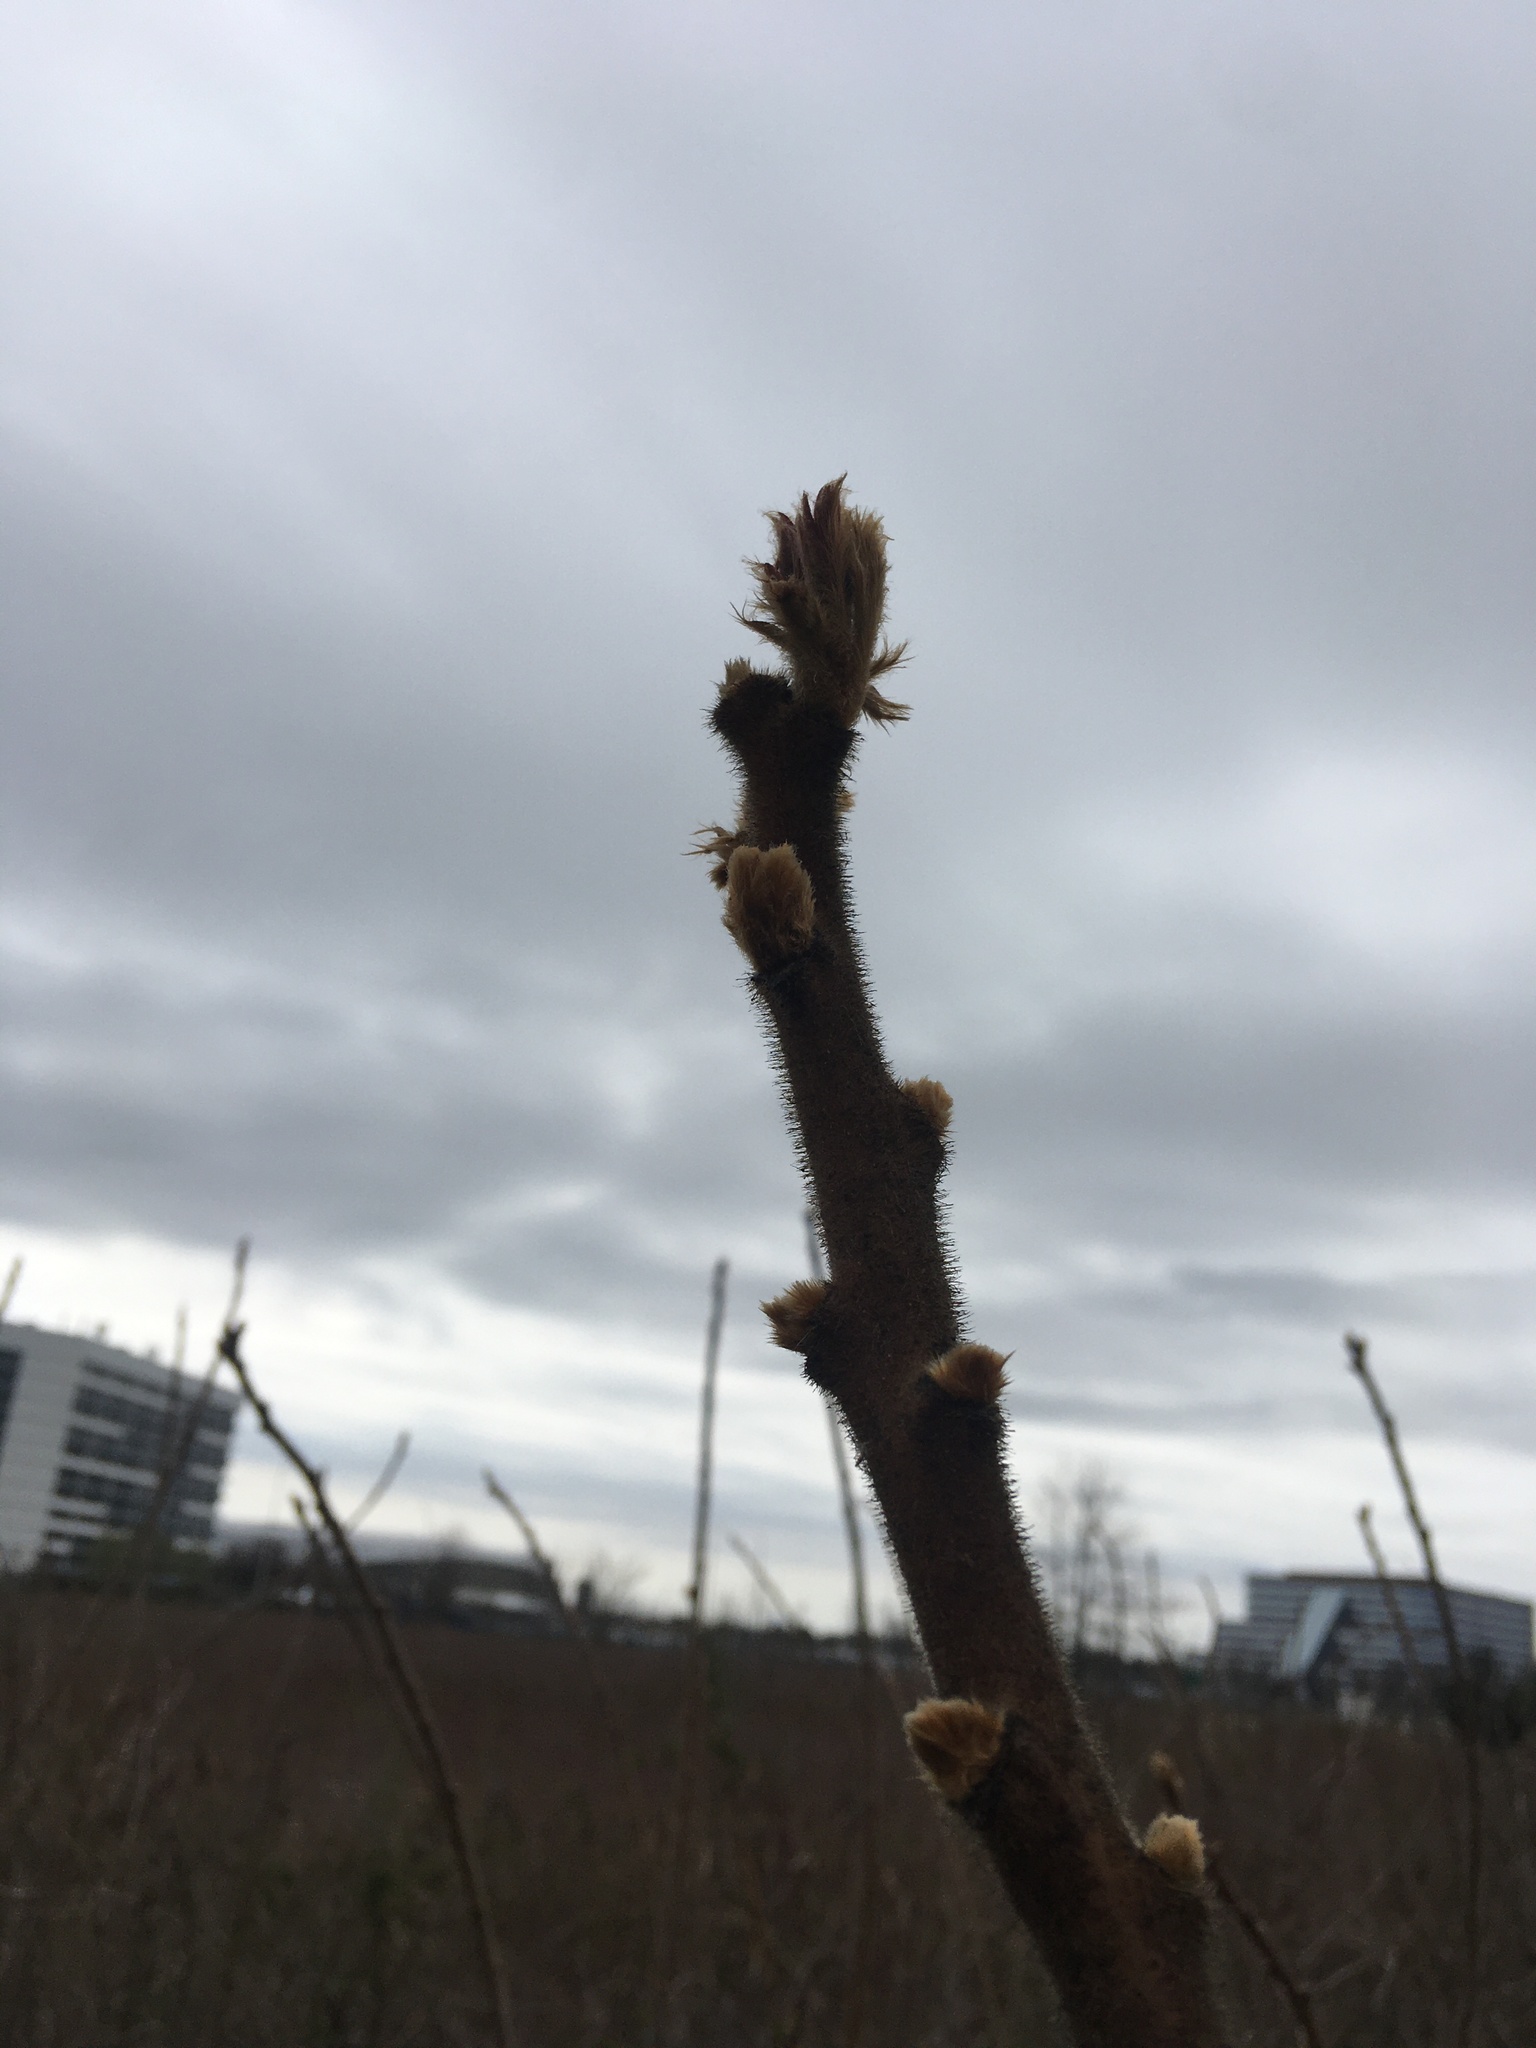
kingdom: Plantae
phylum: Tracheophyta
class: Magnoliopsida
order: Sapindales
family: Anacardiaceae
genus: Rhus
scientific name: Rhus typhina
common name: Staghorn sumac
